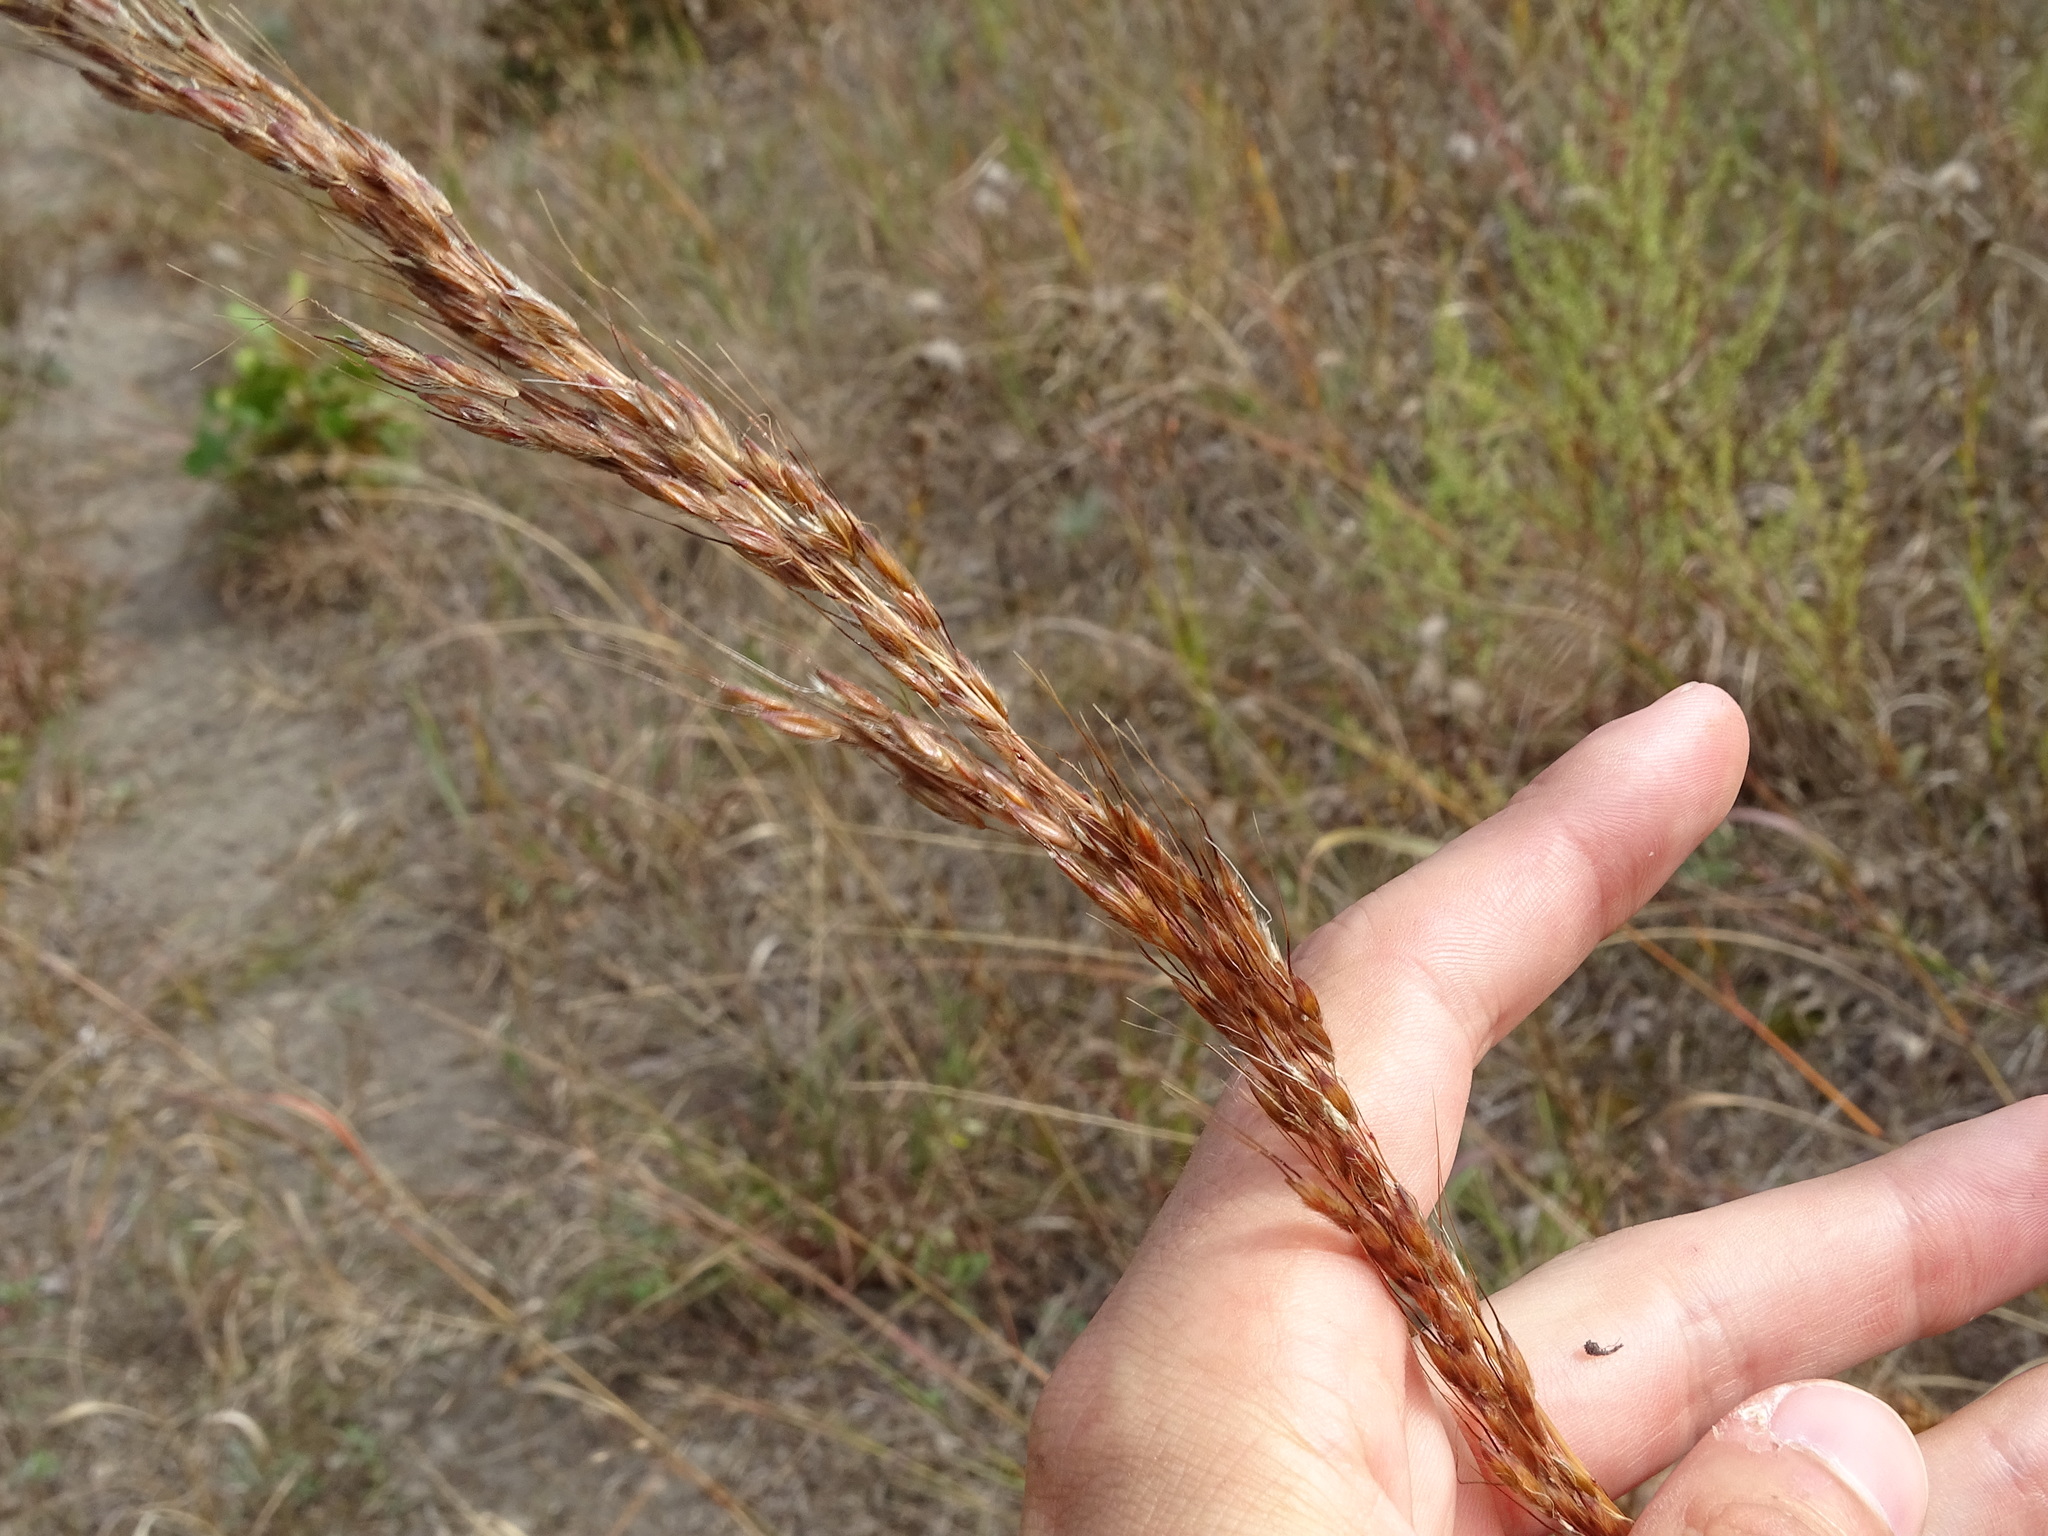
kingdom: Plantae
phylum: Tracheophyta
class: Liliopsida
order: Poales
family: Poaceae
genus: Sorghastrum
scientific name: Sorghastrum nutans
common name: Indian grass
